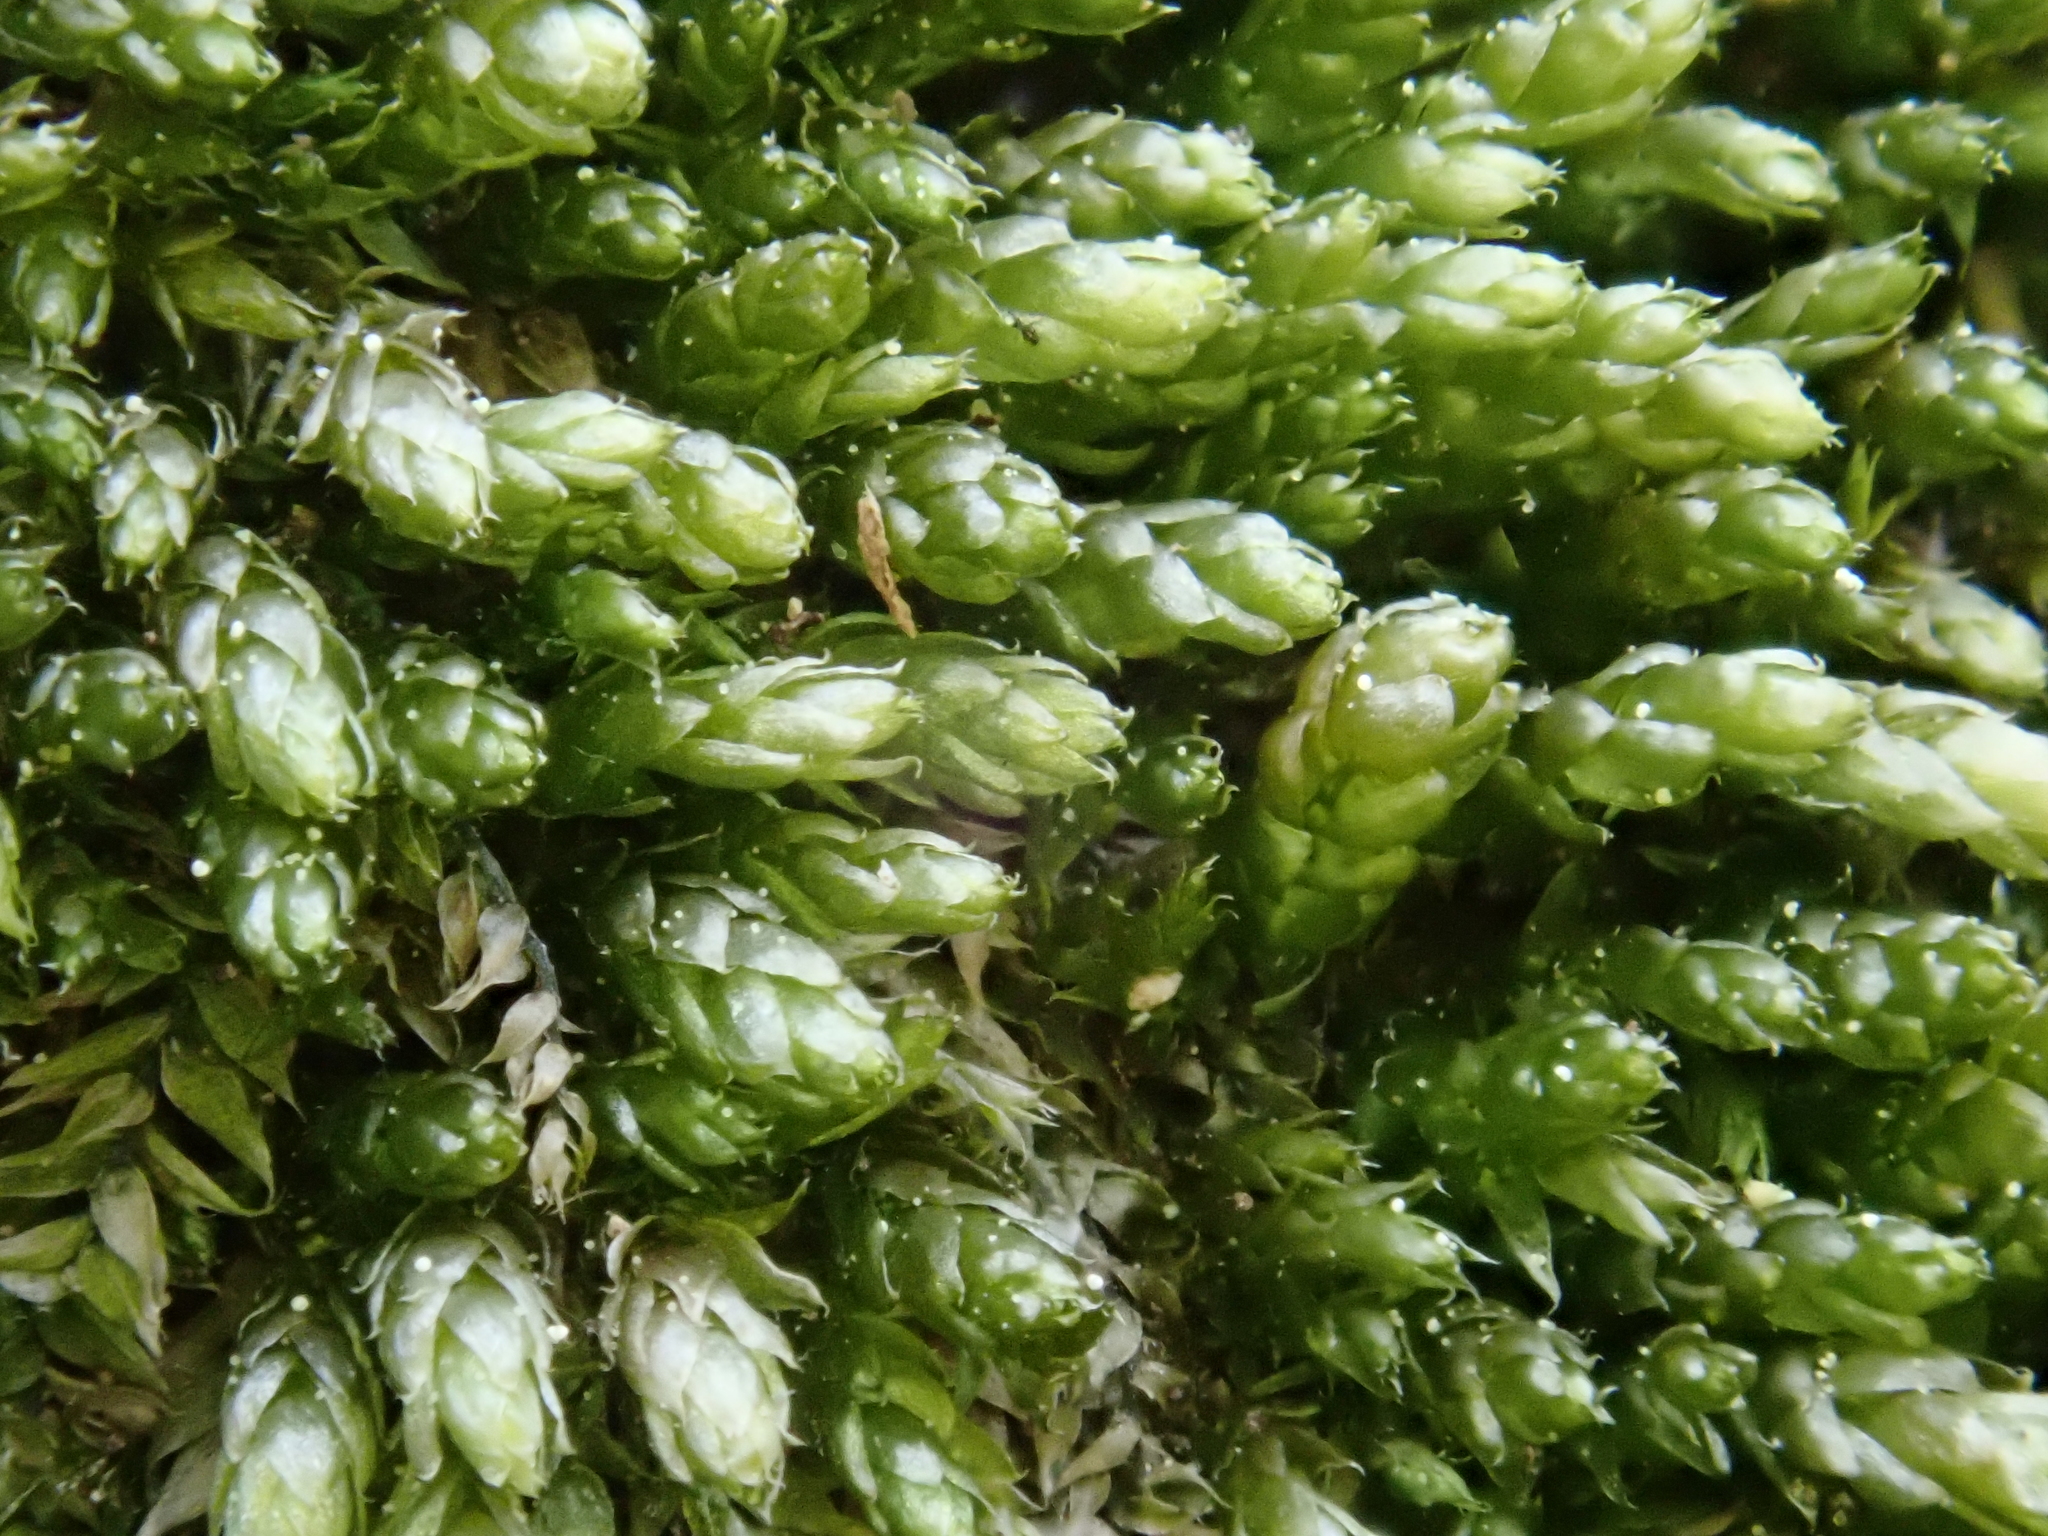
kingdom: Plantae
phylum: Bryophyta
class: Bryopsida
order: Hypnales
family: Plagiotheciaceae
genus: Plagiothecium
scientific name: Plagiothecium cavifolium
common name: Round silk moss
